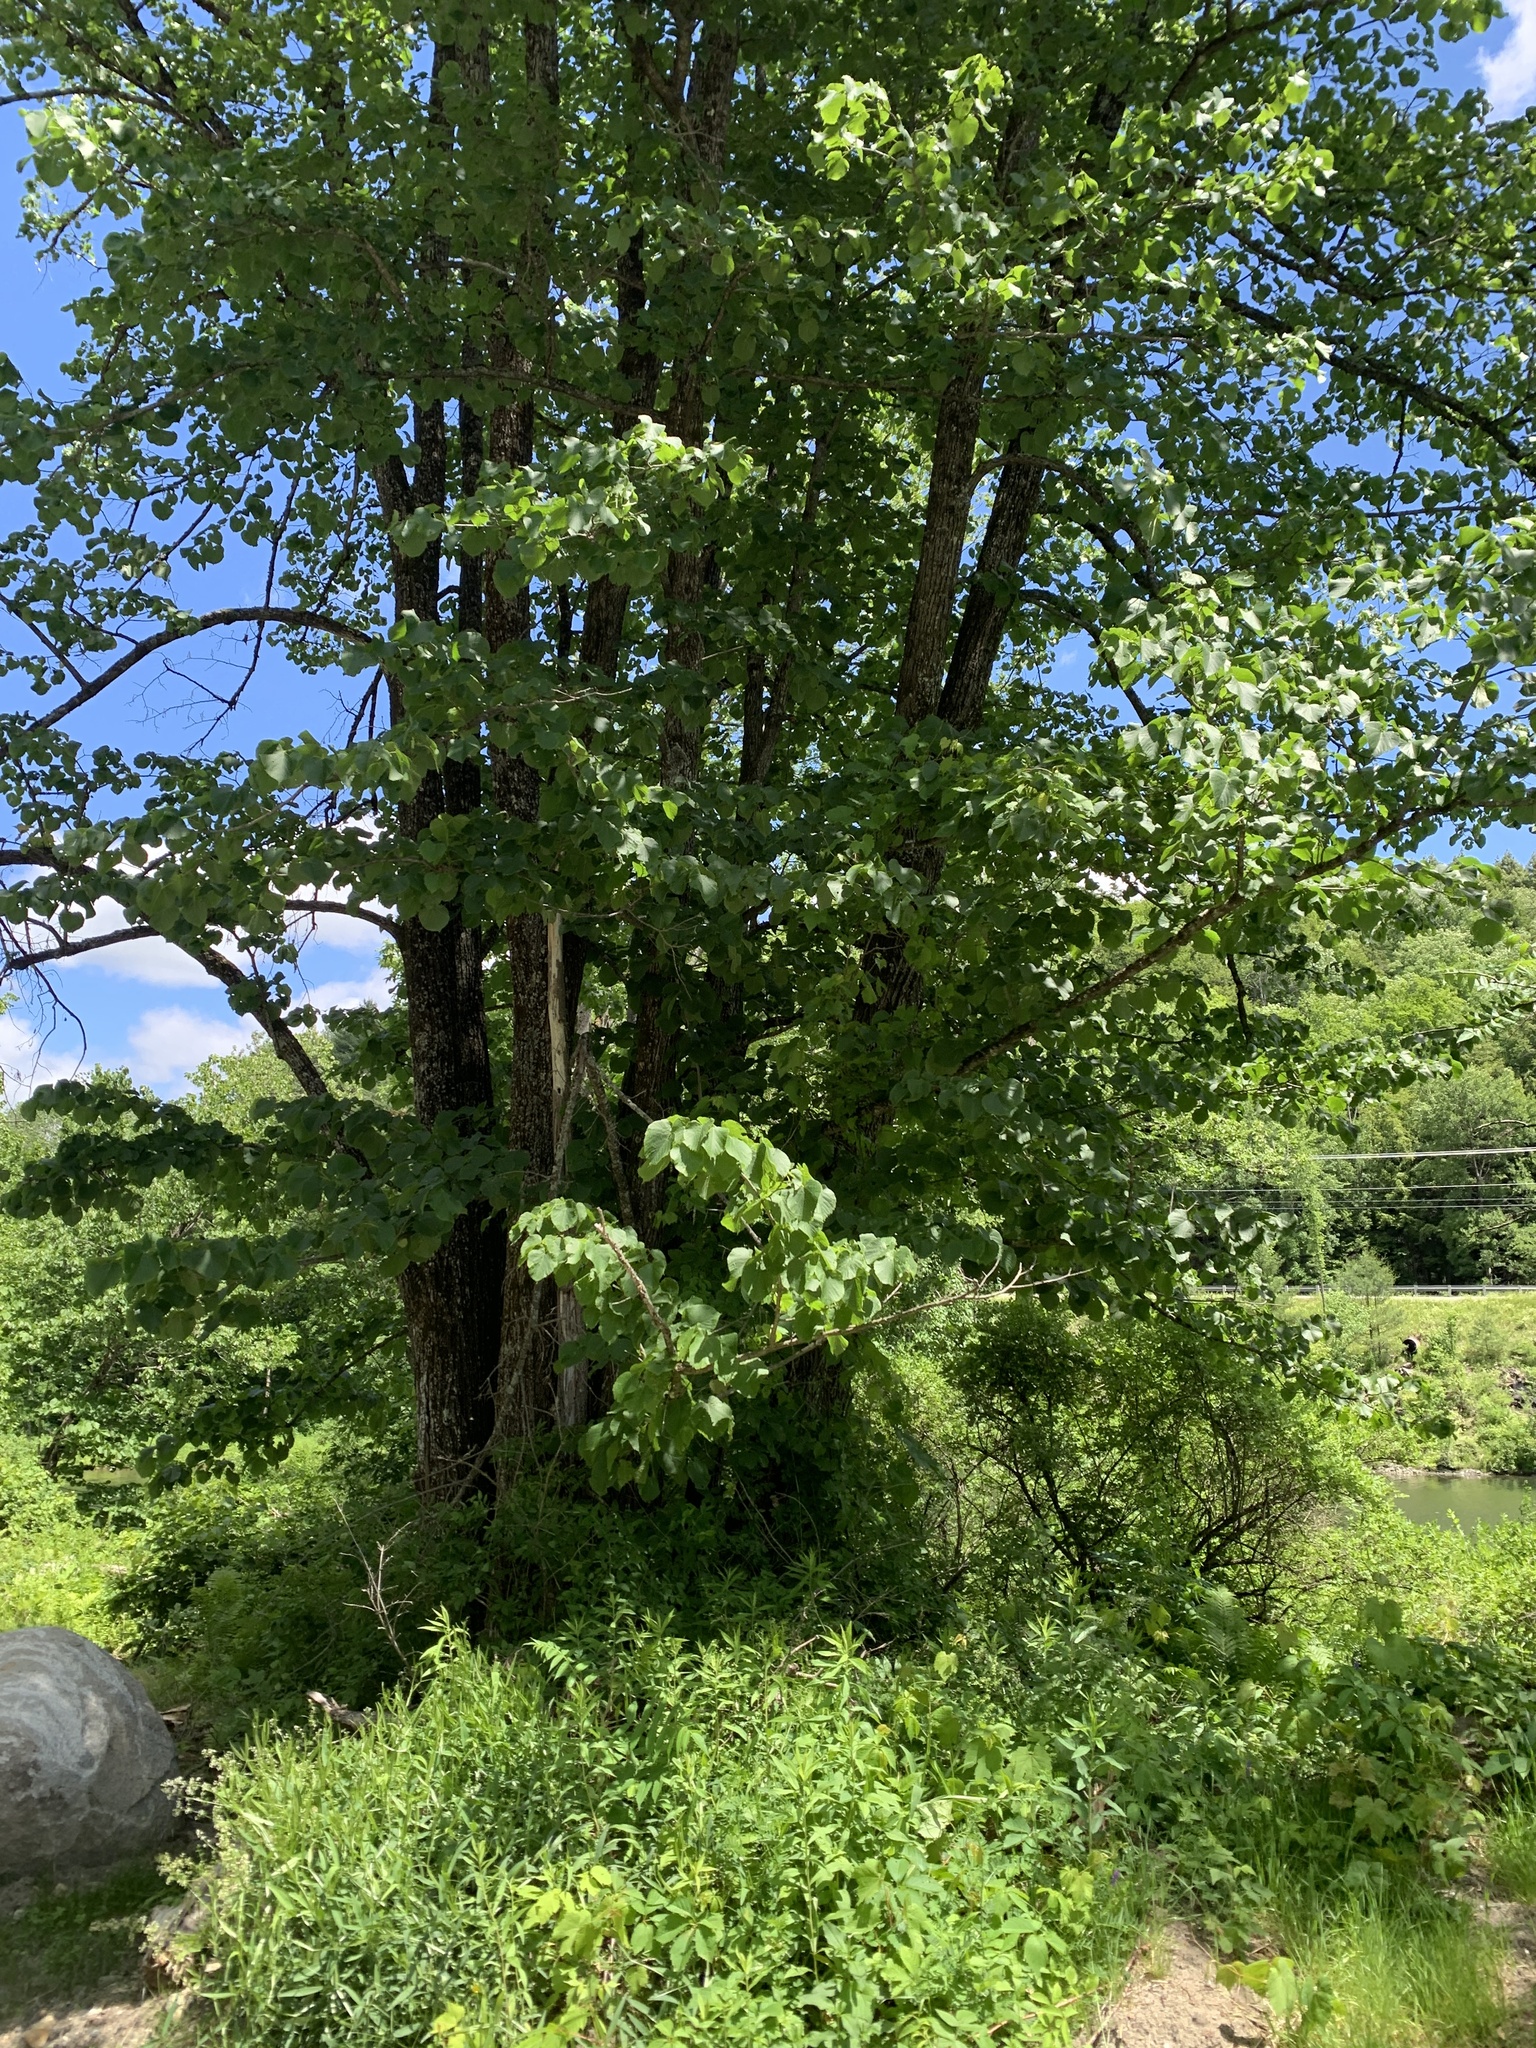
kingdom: Plantae
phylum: Tracheophyta
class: Magnoliopsida
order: Malvales
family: Malvaceae
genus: Tilia
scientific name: Tilia americana
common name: Basswood
